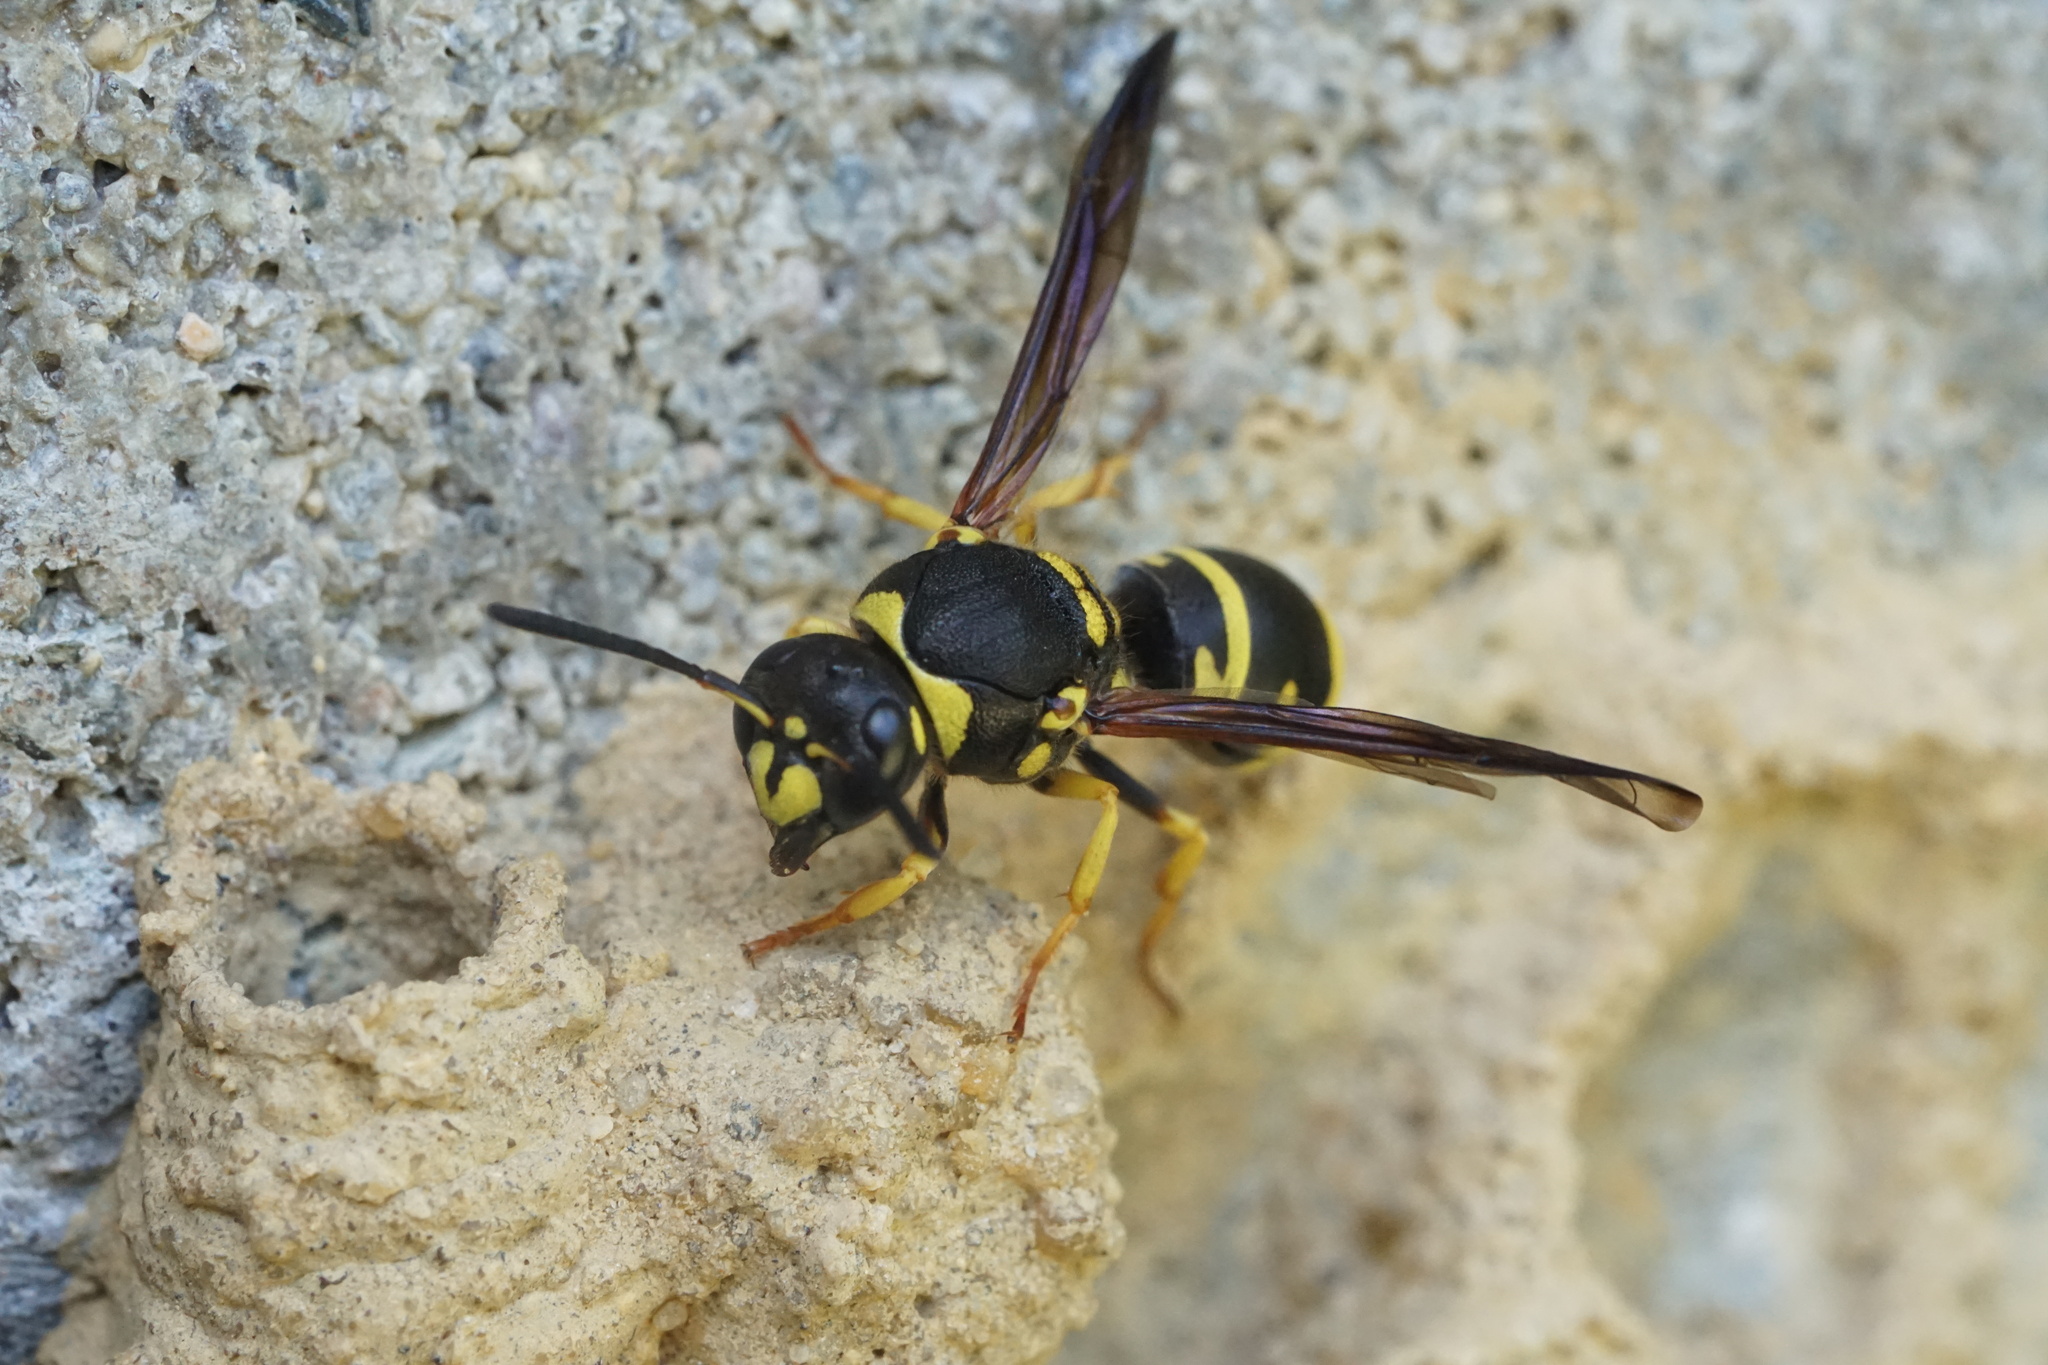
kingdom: Animalia
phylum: Arthropoda
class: Insecta
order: Hymenoptera
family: Vespidae
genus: Ancistrocerus
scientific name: Ancistrocerus lutonidus
